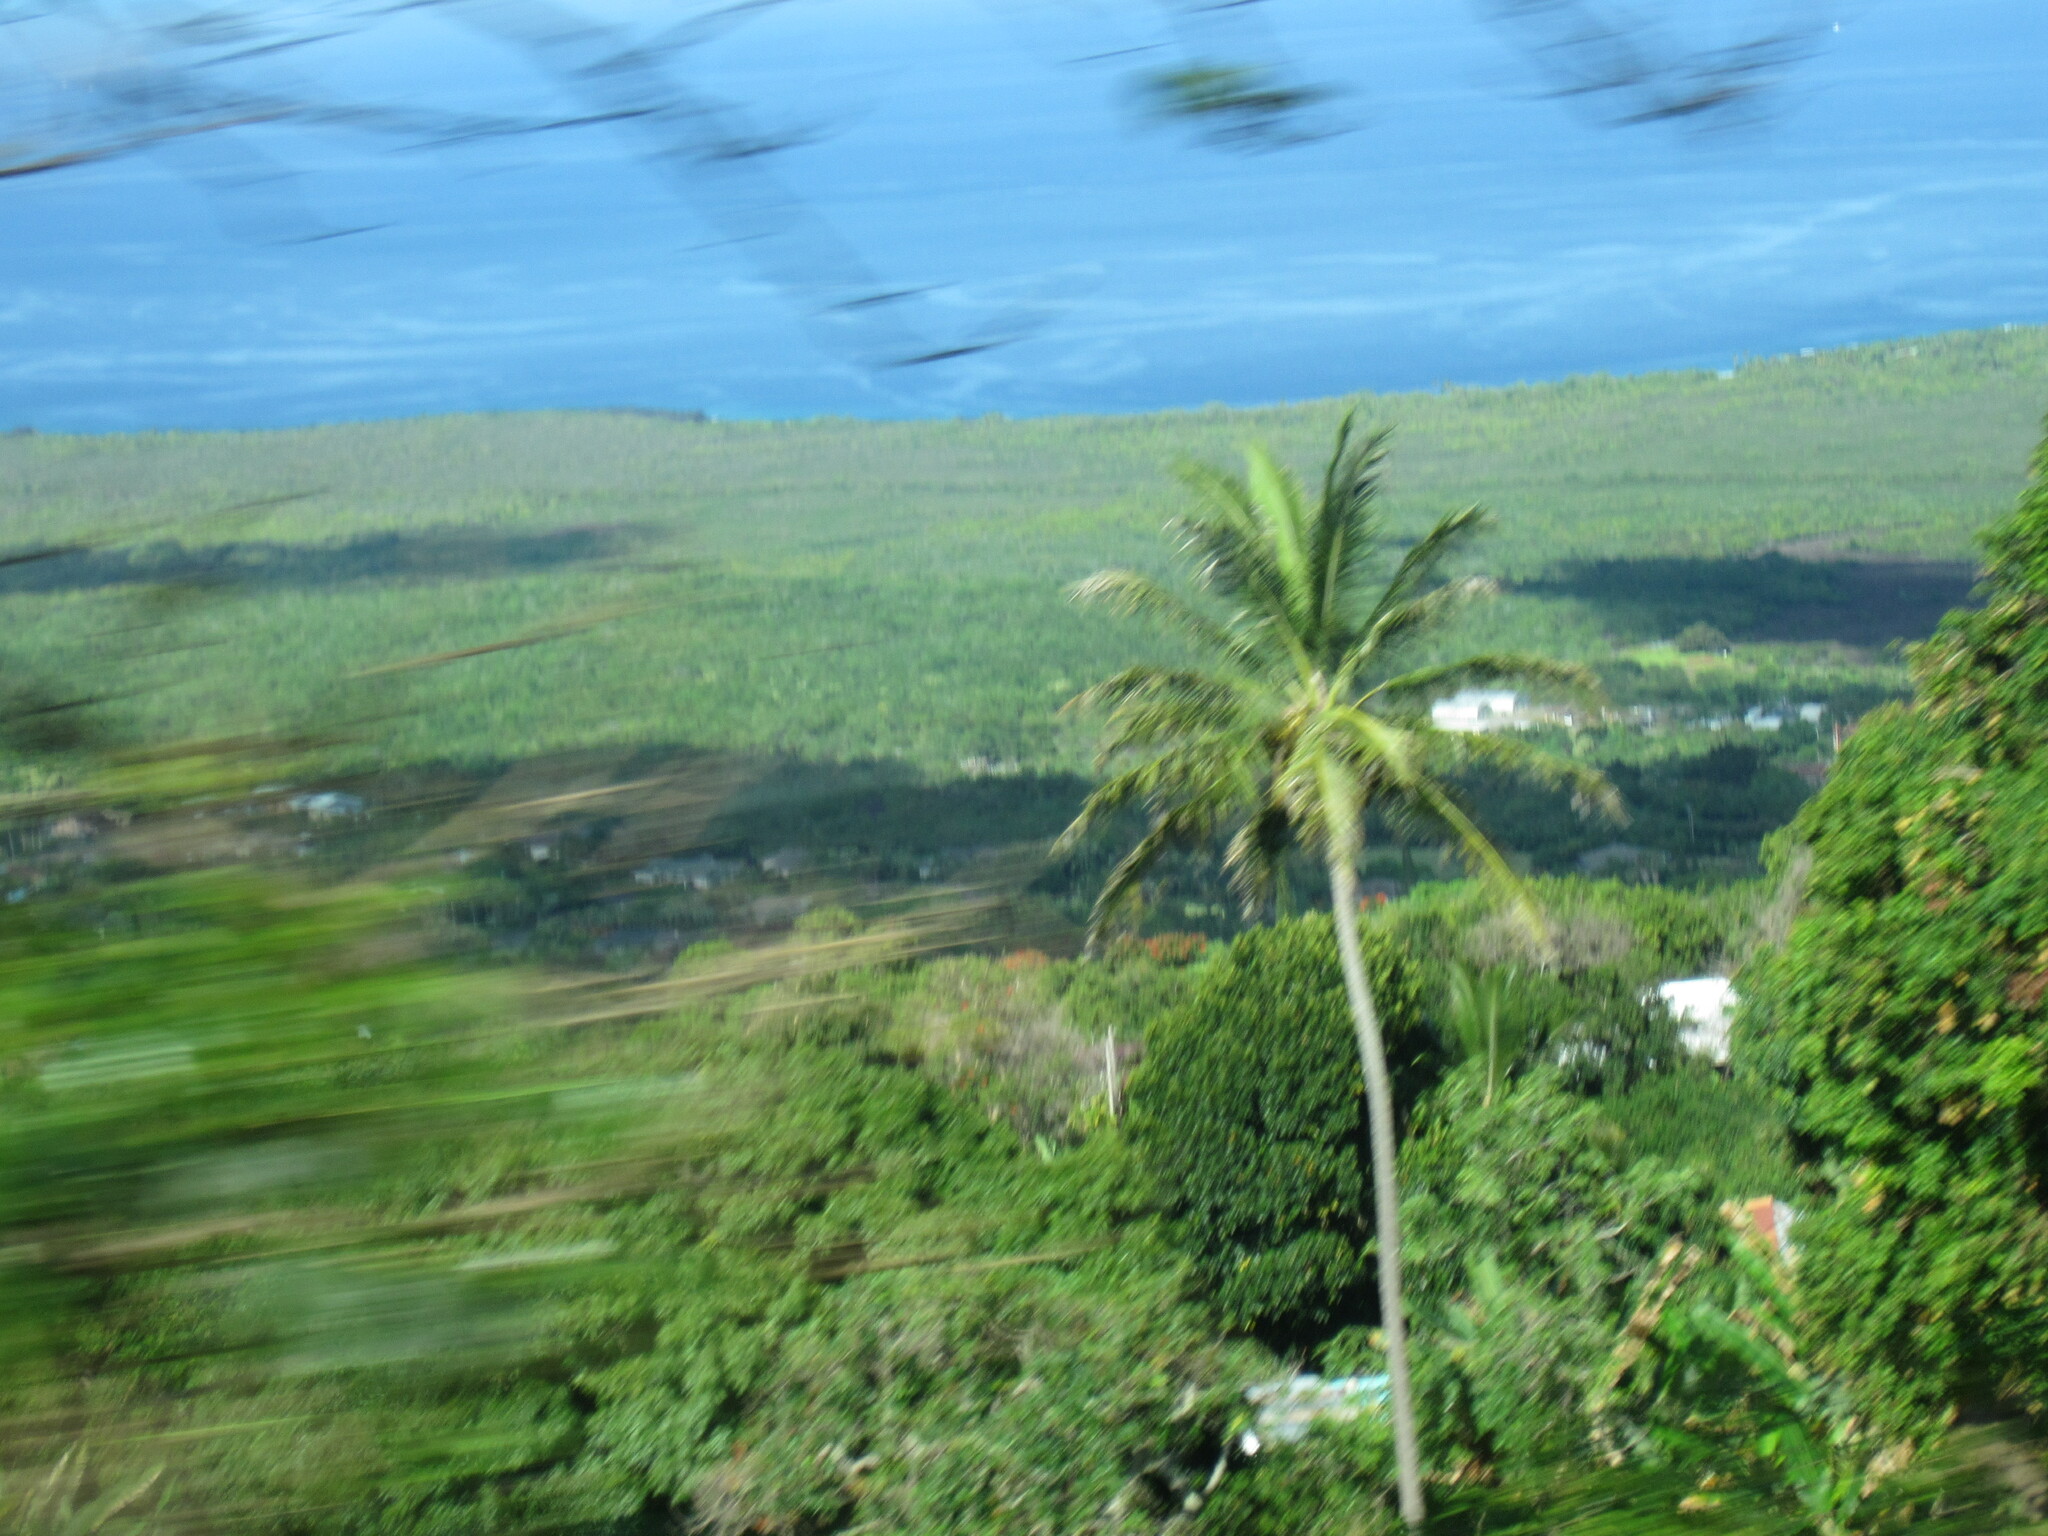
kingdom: Plantae
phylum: Tracheophyta
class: Liliopsida
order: Arecales
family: Arecaceae
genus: Cocos
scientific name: Cocos nucifera
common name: Coconut palm
